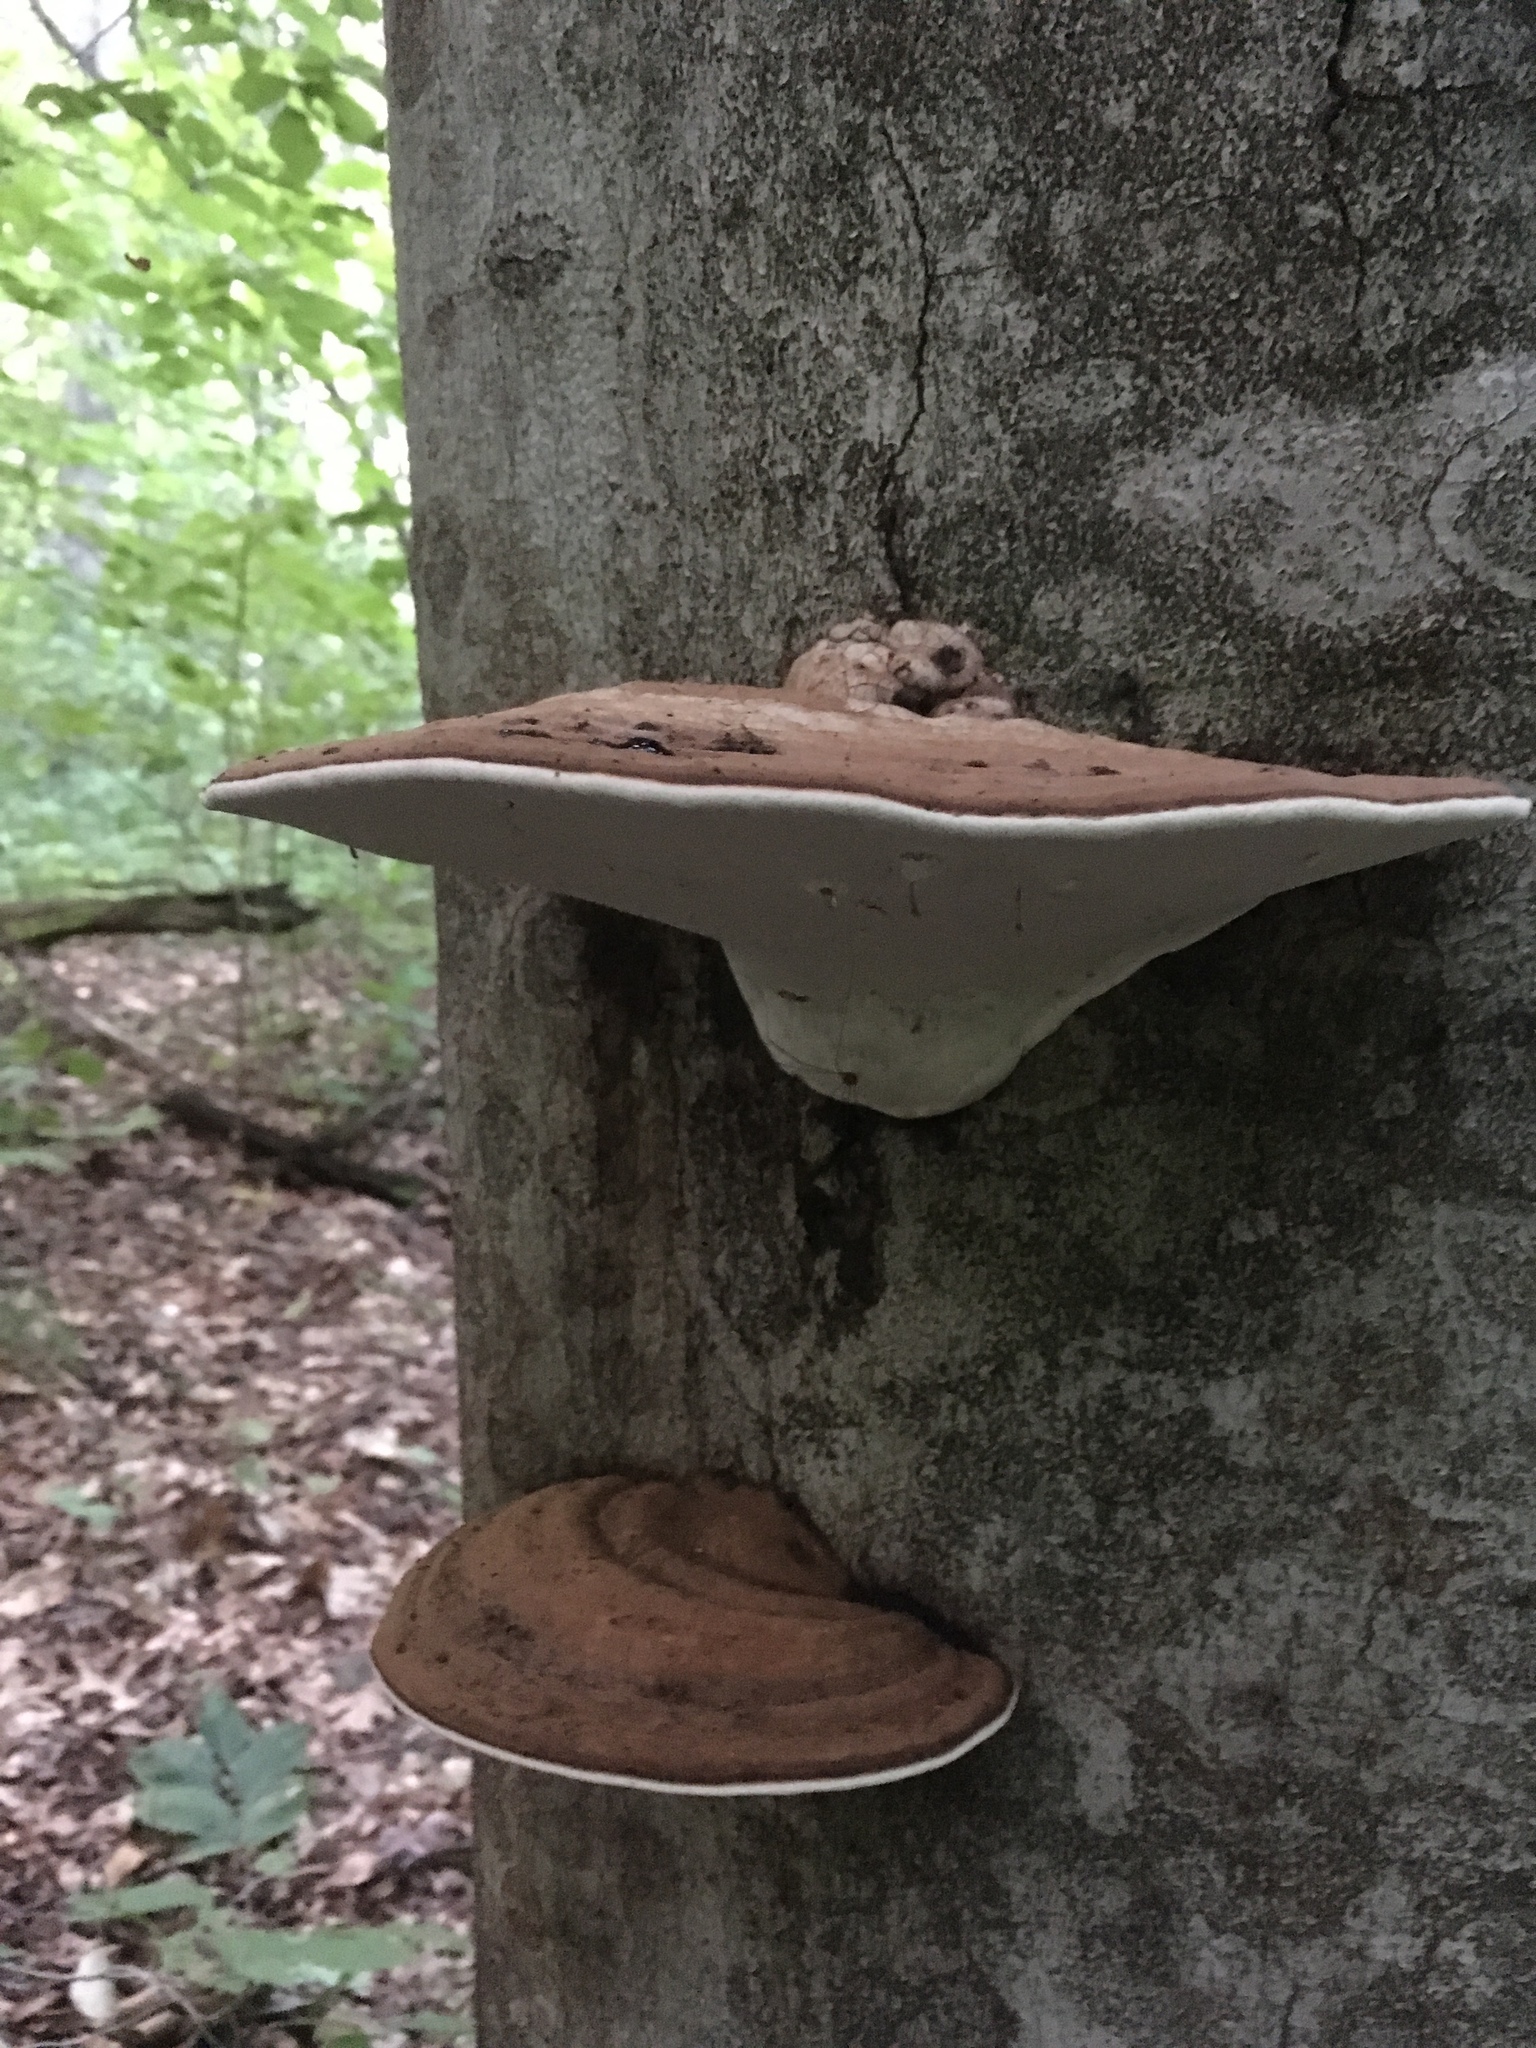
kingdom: Fungi
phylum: Basidiomycota
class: Agaricomycetes
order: Polyporales
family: Polyporaceae
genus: Ganoderma
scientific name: Ganoderma applanatum
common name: Artist's bracket
